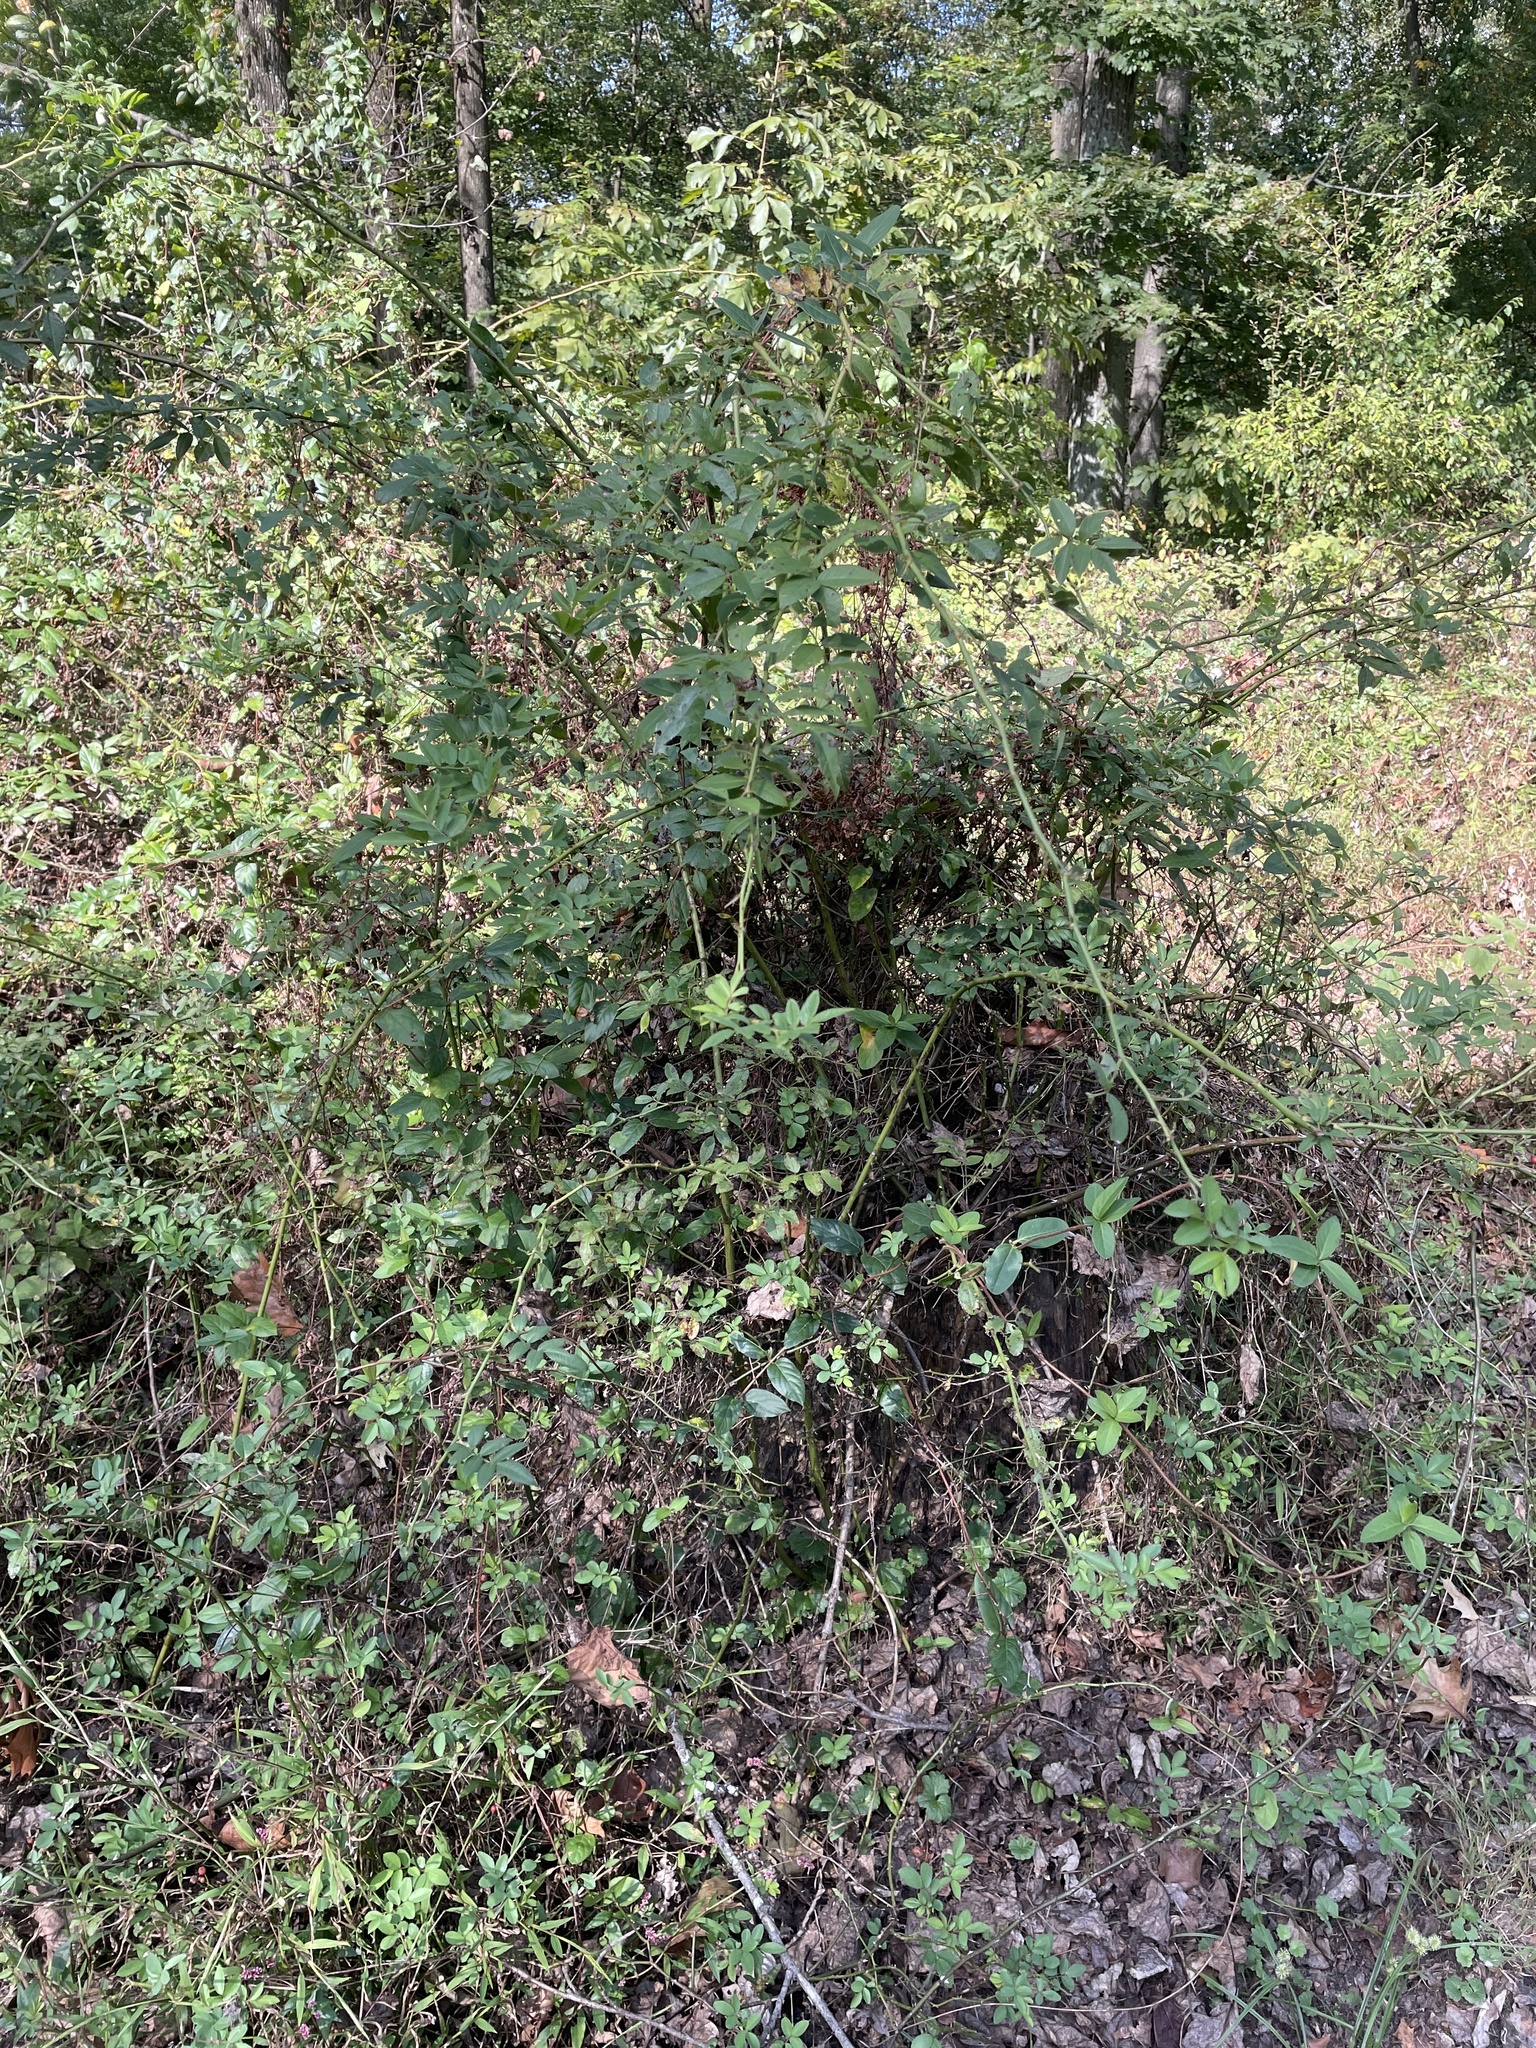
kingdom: Plantae
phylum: Tracheophyta
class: Magnoliopsida
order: Rosales
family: Rosaceae
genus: Rosa
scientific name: Rosa multiflora
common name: Multiflora rose
